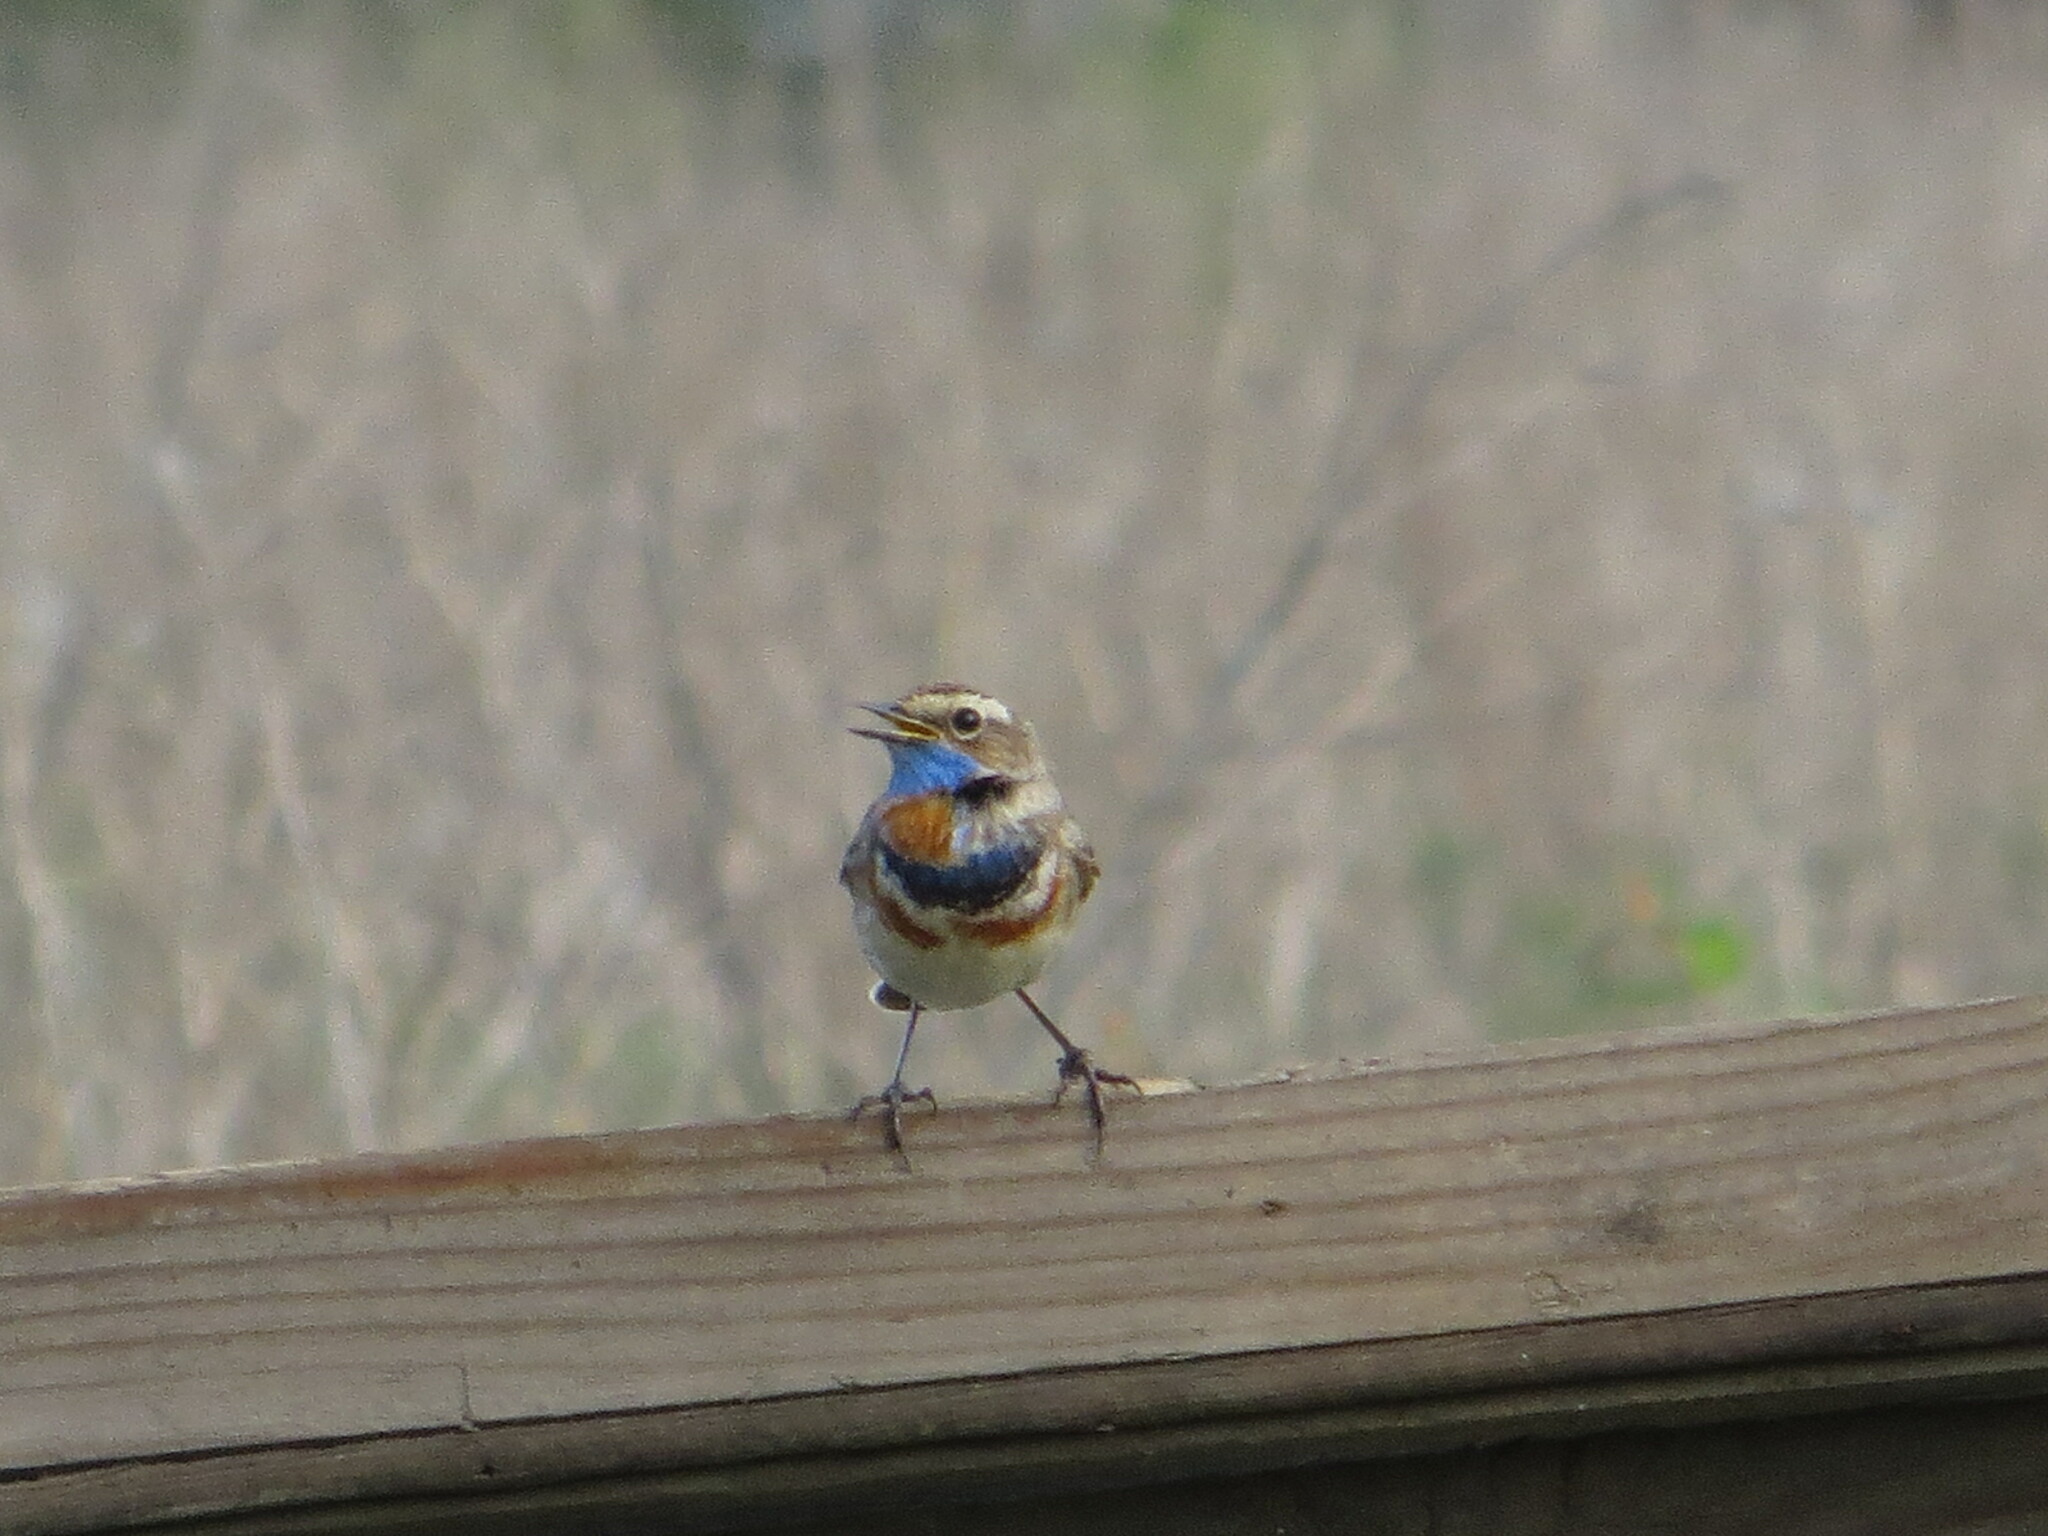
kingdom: Animalia
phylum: Chordata
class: Aves
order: Passeriformes
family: Muscicapidae
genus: Luscinia
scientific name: Luscinia svecica
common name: Bluethroat
